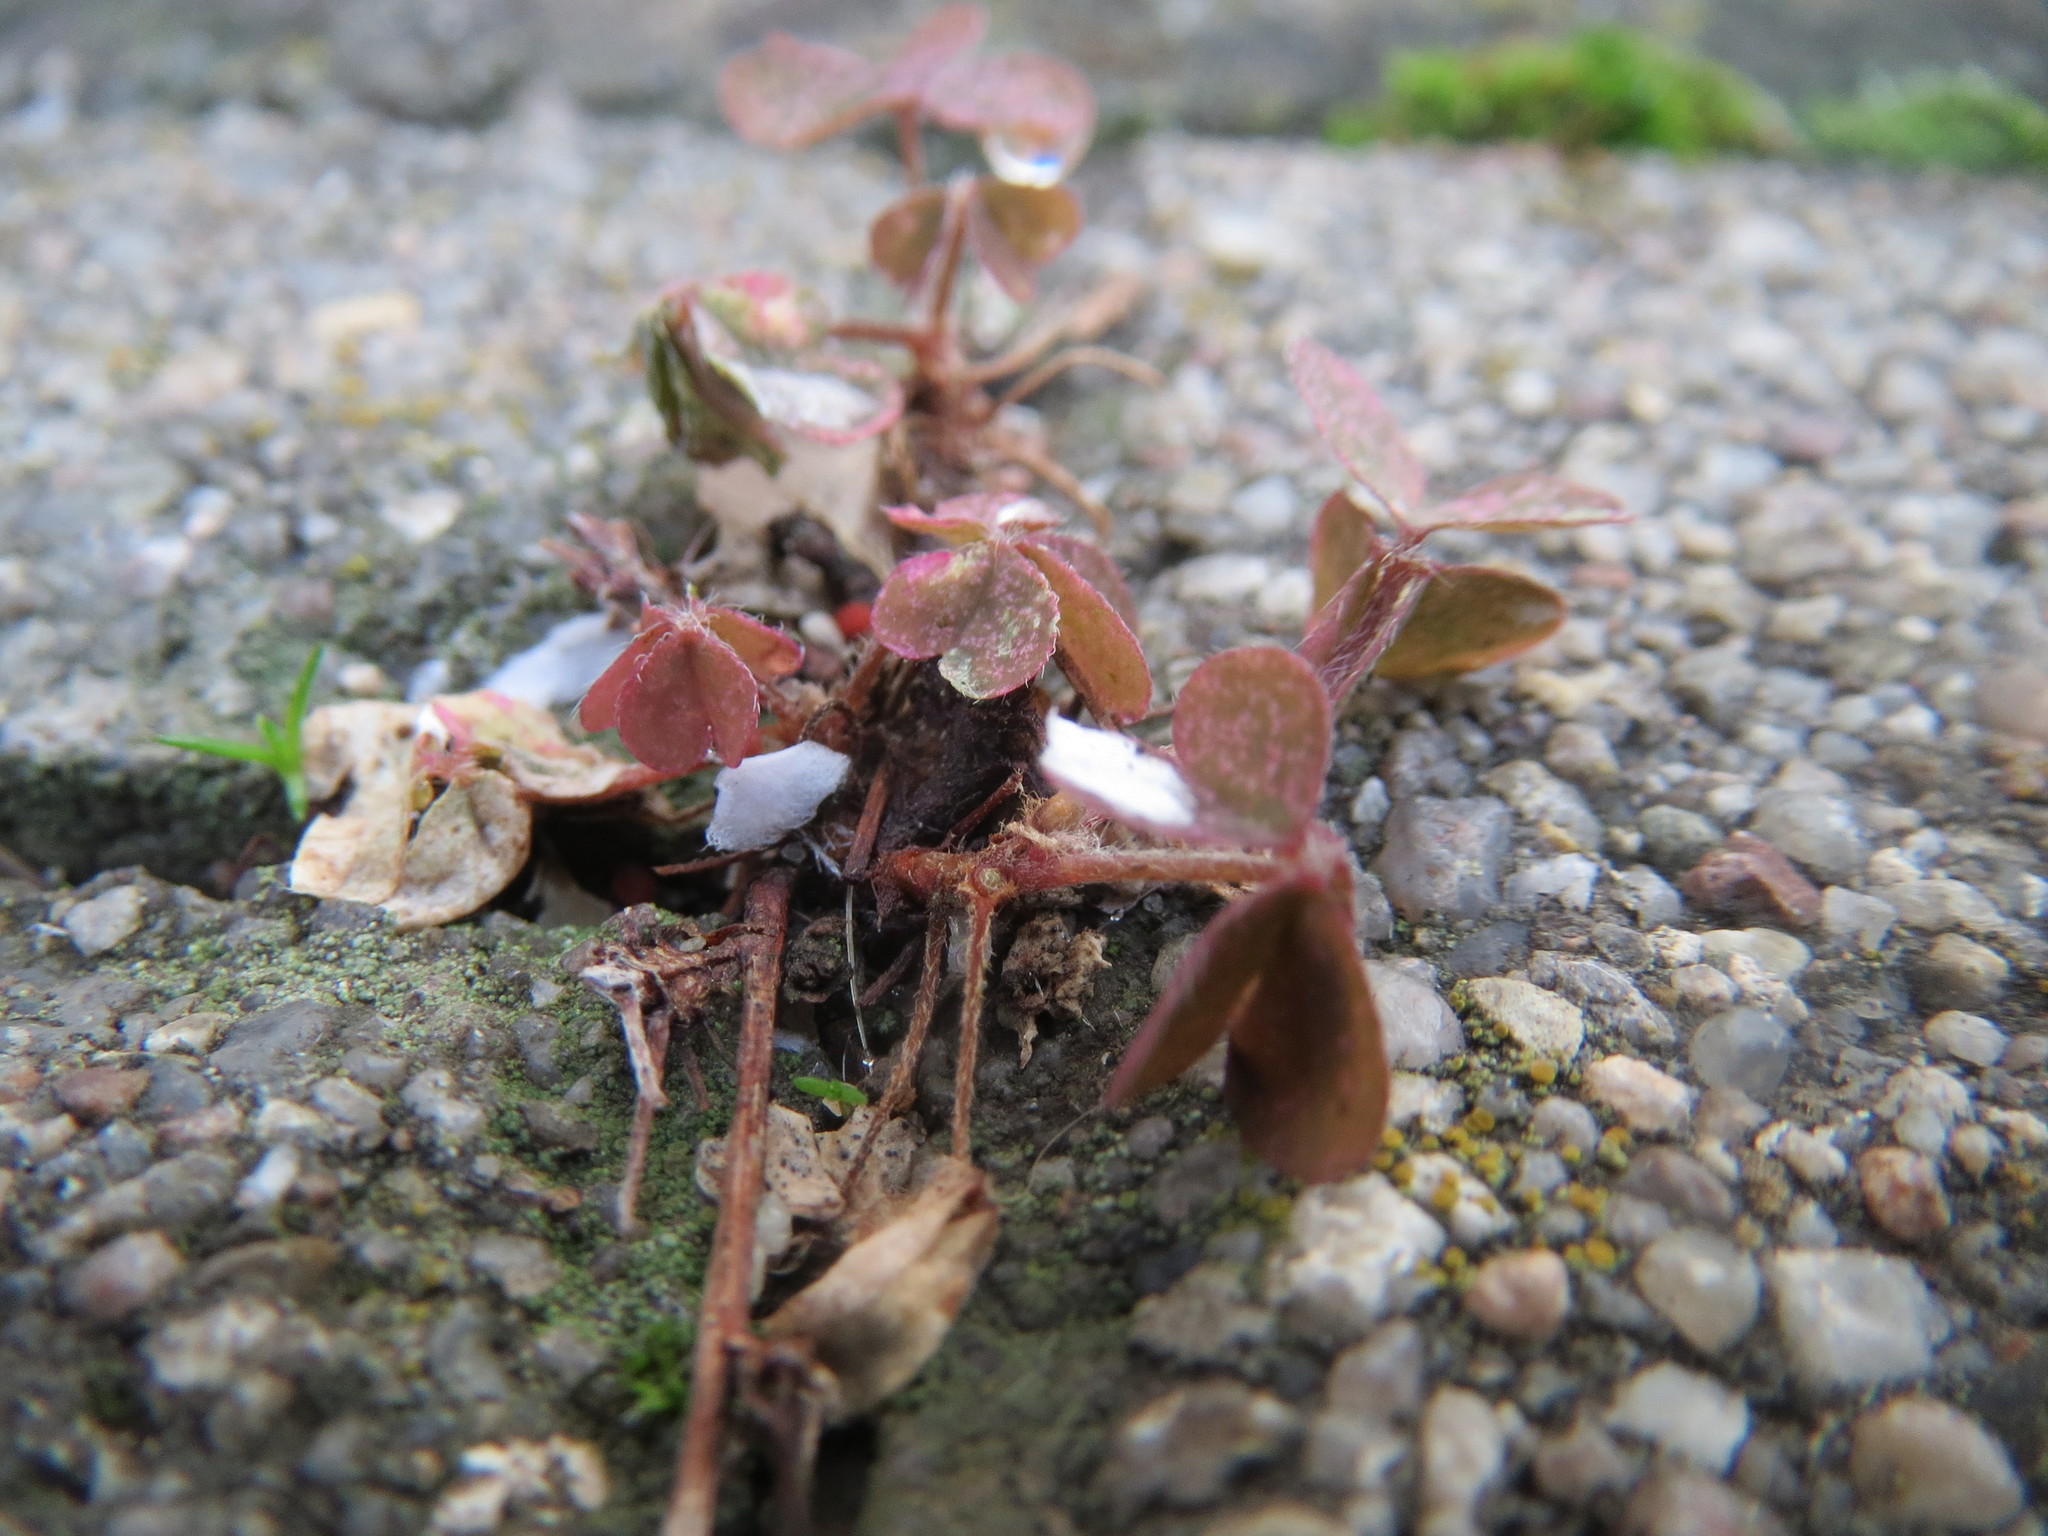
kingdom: Plantae
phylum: Tracheophyta
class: Magnoliopsida
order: Oxalidales
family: Oxalidaceae
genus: Oxalis
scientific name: Oxalis corniculata
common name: Procumbent yellow-sorrel
